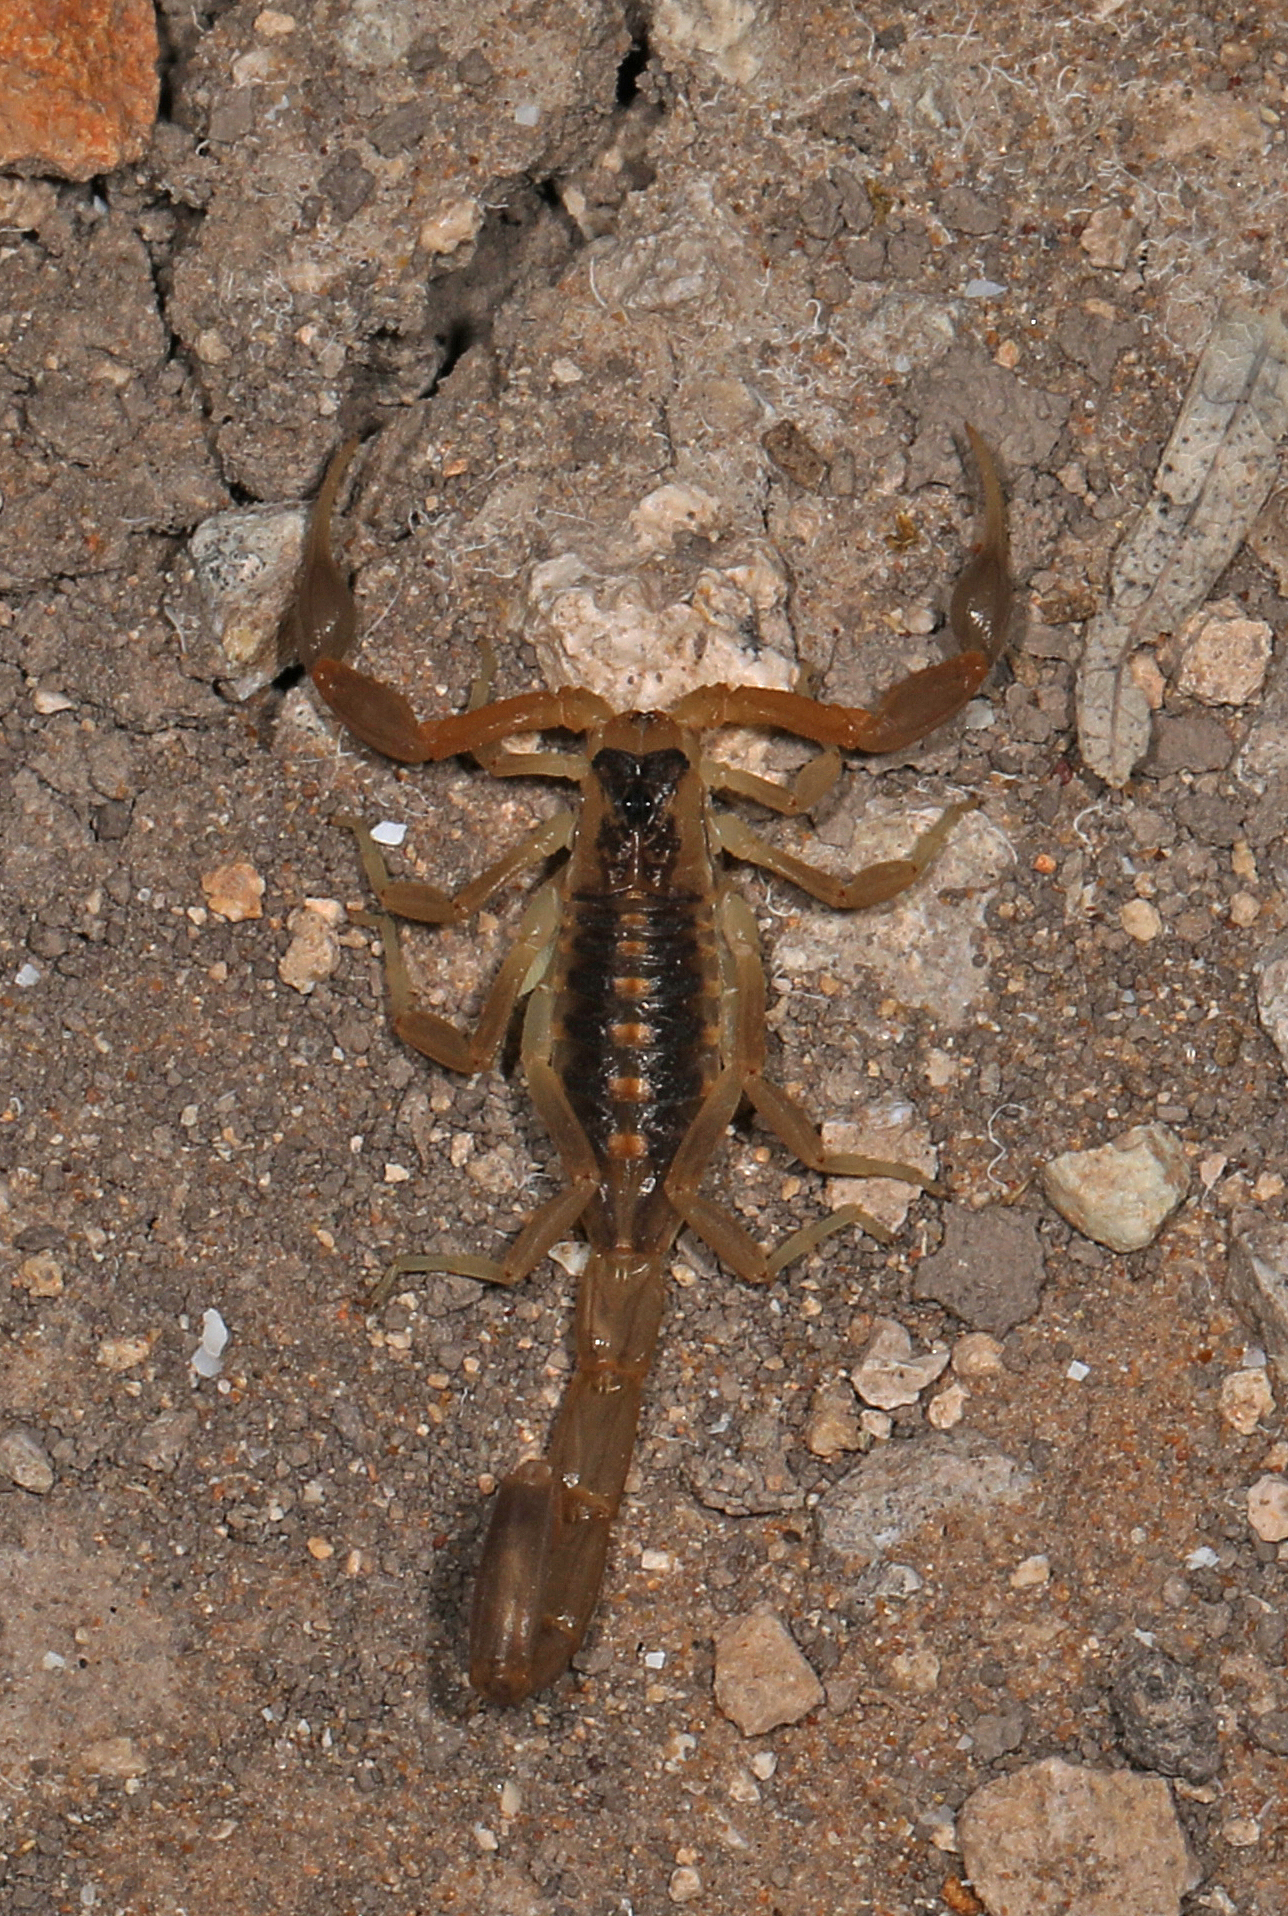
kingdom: Animalia
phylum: Arthropoda
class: Arachnida
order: Scorpiones
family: Buthidae
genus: Centruroides
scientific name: Centruroides vittatus
